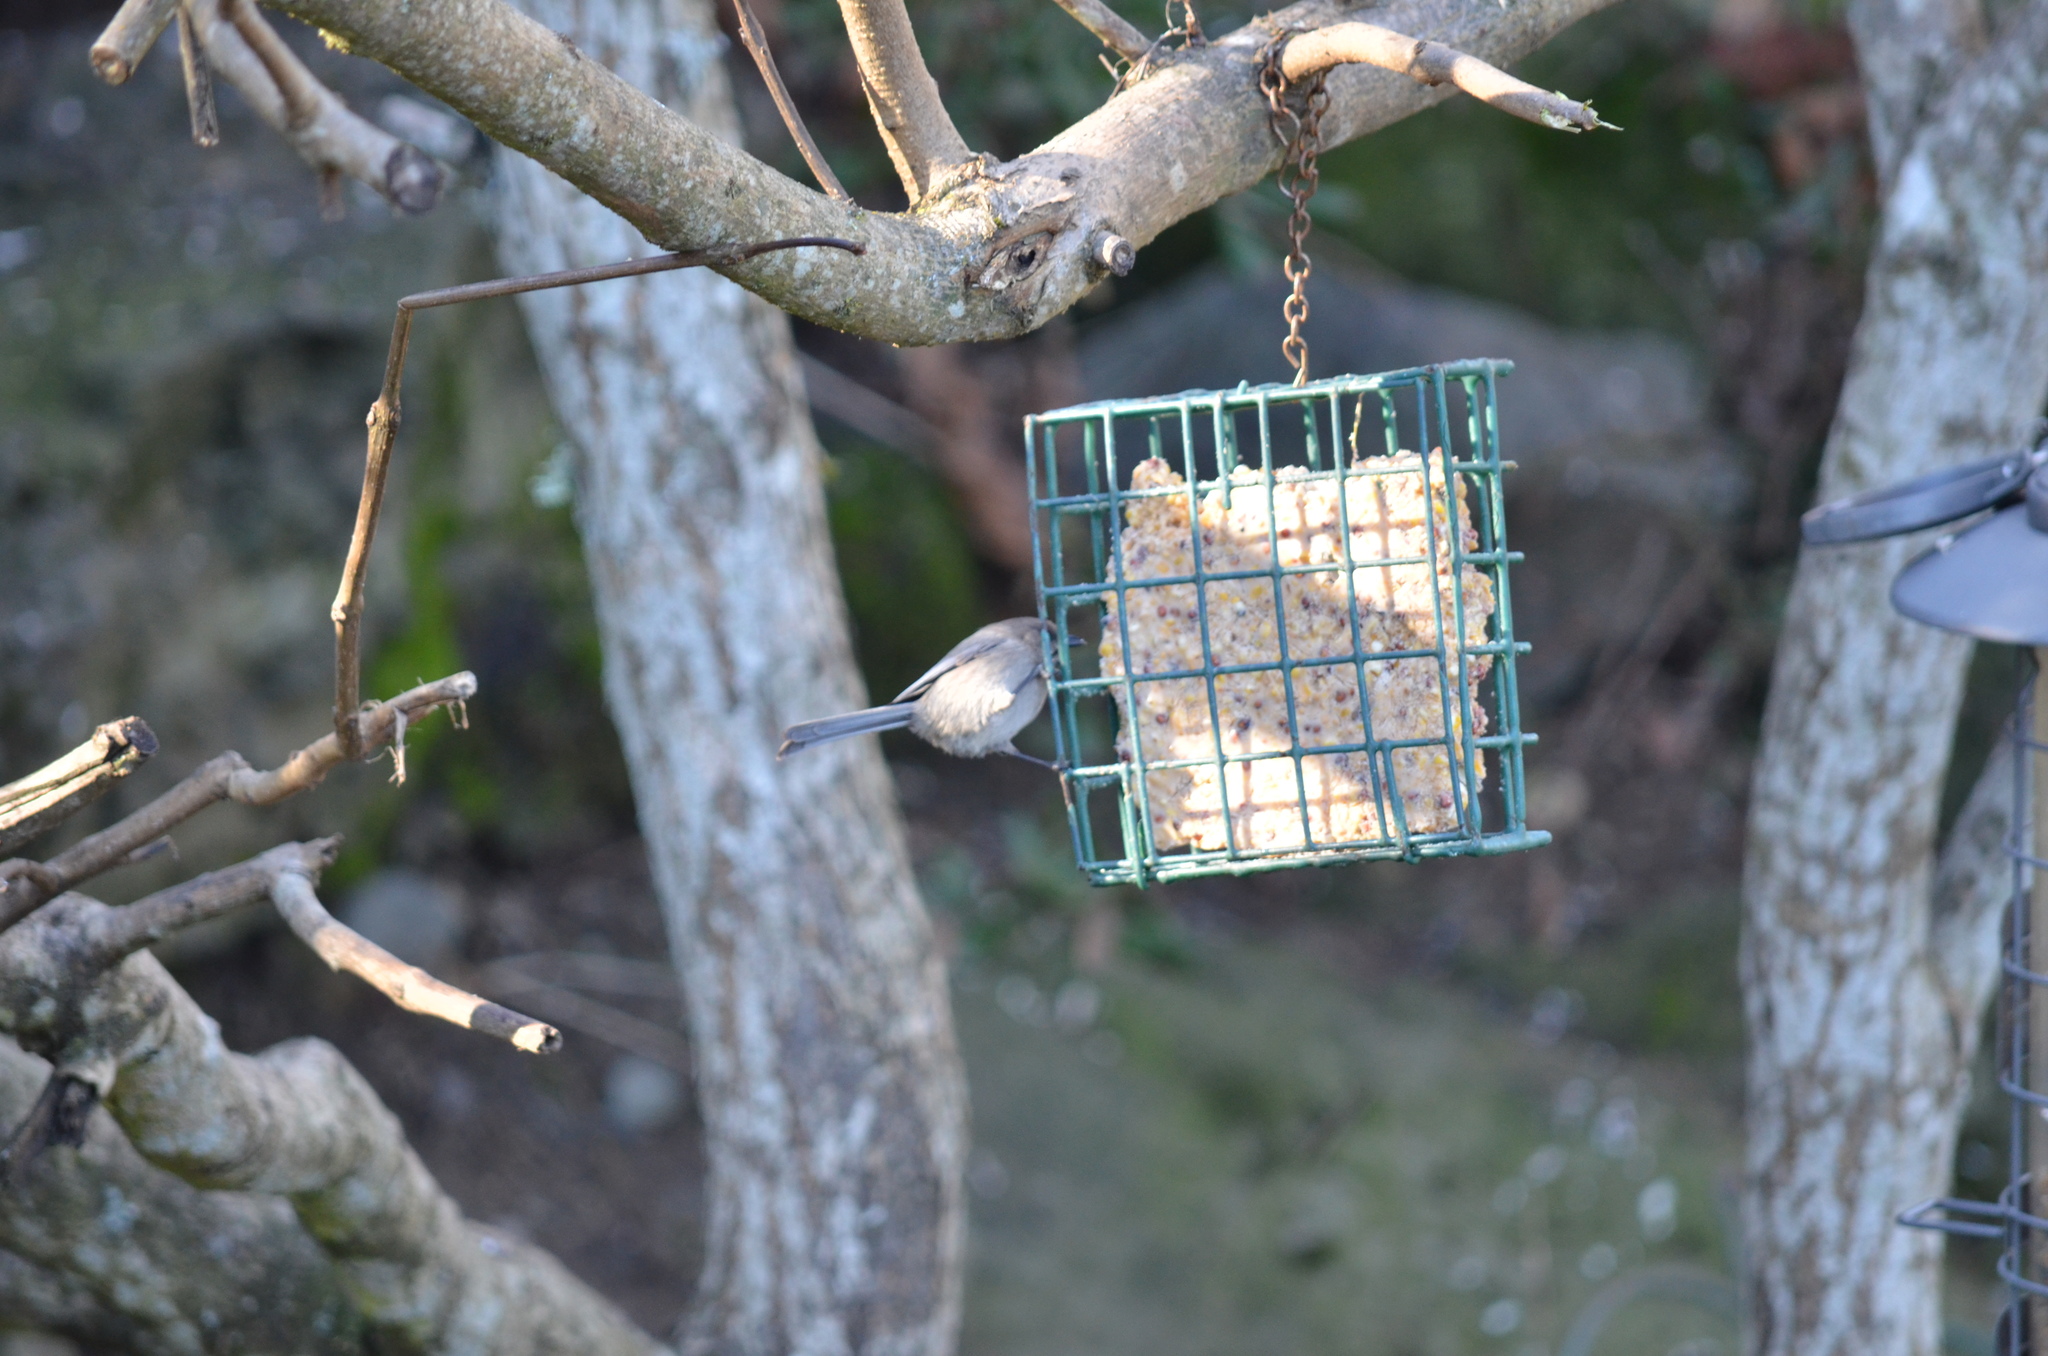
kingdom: Animalia
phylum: Chordata
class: Aves
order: Passeriformes
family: Aegithalidae
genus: Psaltriparus
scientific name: Psaltriparus minimus
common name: American bushtit
